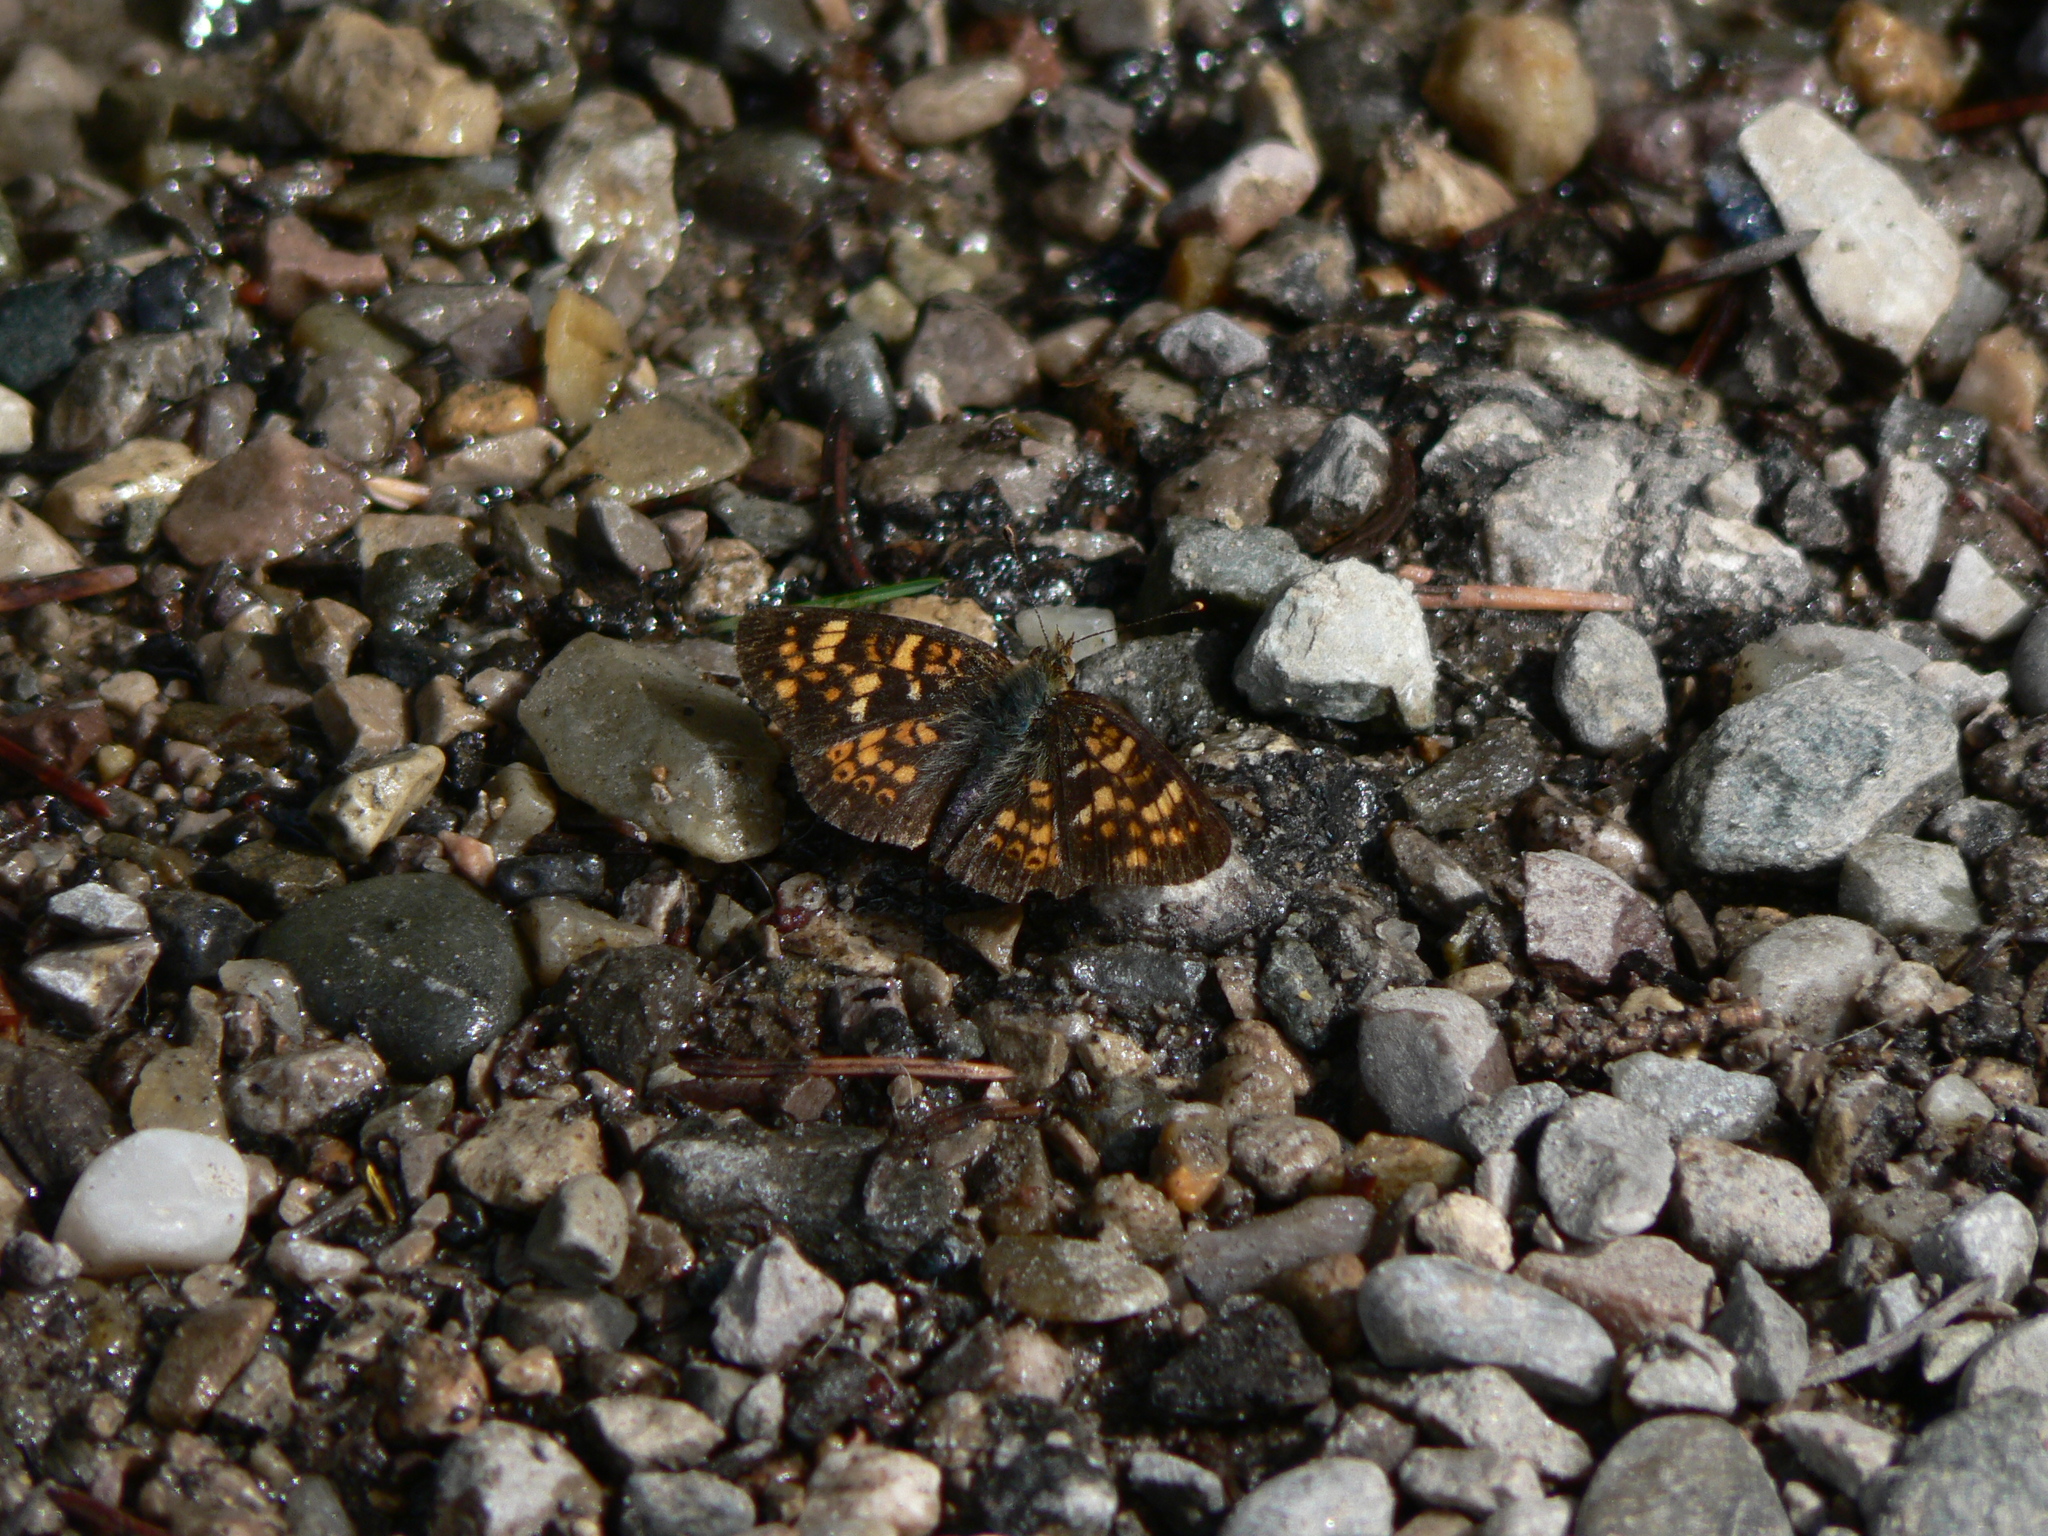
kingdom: Animalia
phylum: Arthropoda
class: Insecta
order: Lepidoptera
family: Nymphalidae
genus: Phyciodes
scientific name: Phyciodes tharos
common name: Pearl crescent
